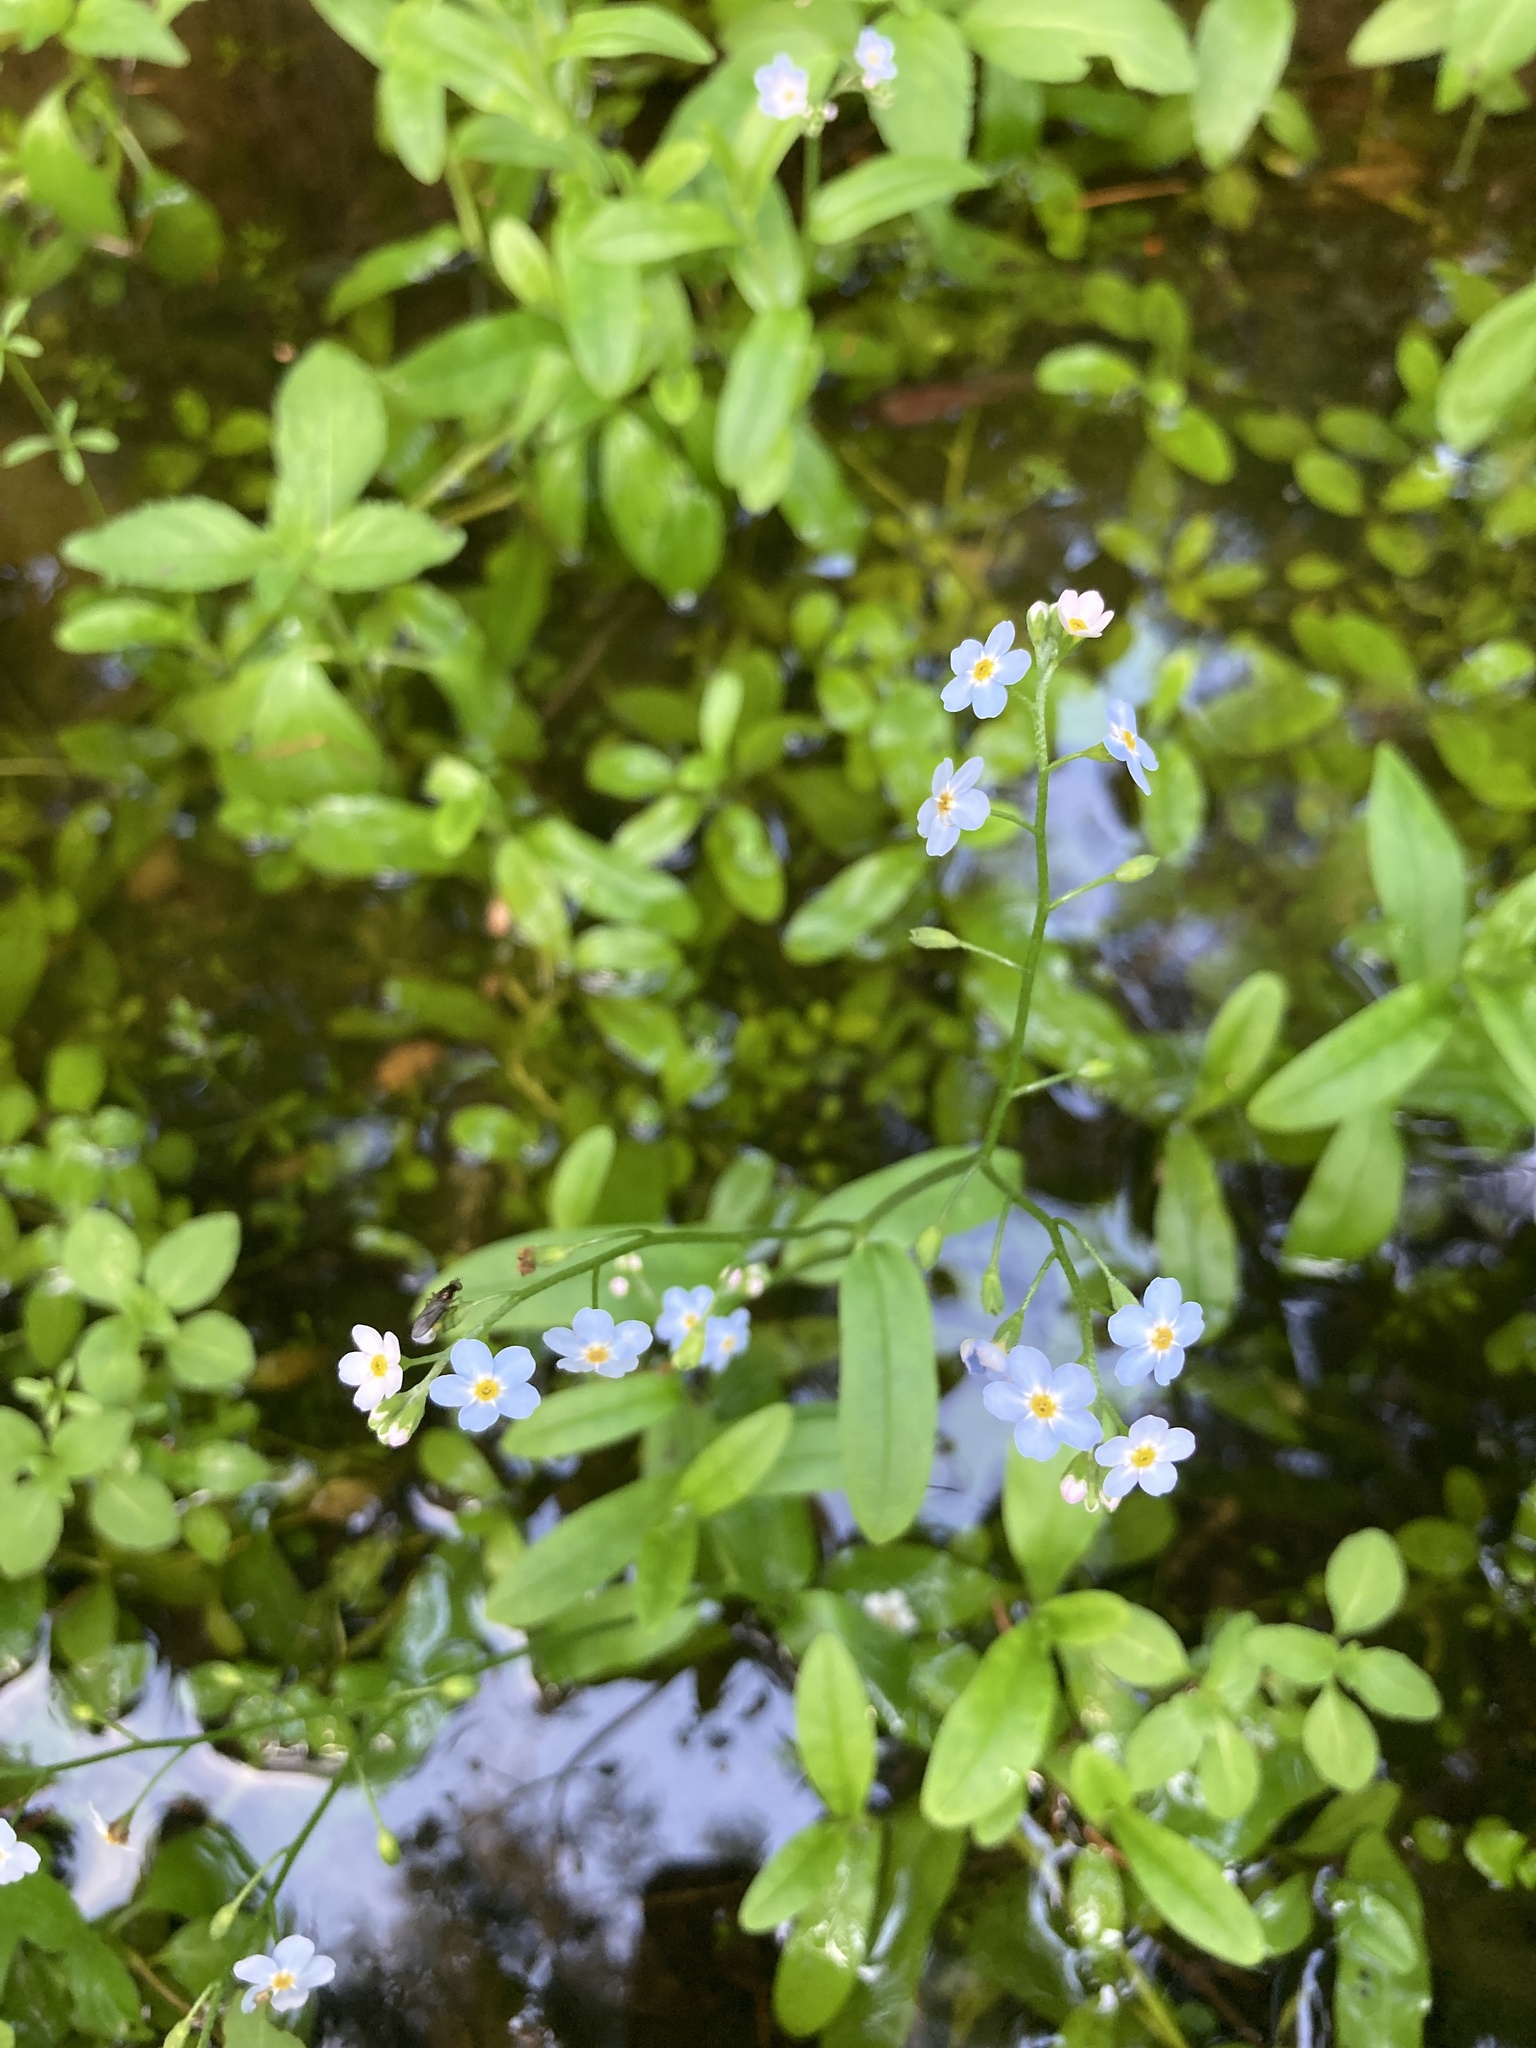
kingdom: Plantae
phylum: Tracheophyta
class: Magnoliopsida
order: Boraginales
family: Boraginaceae
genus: Myosotis
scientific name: Myosotis scorpioides
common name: Water forget-me-not
